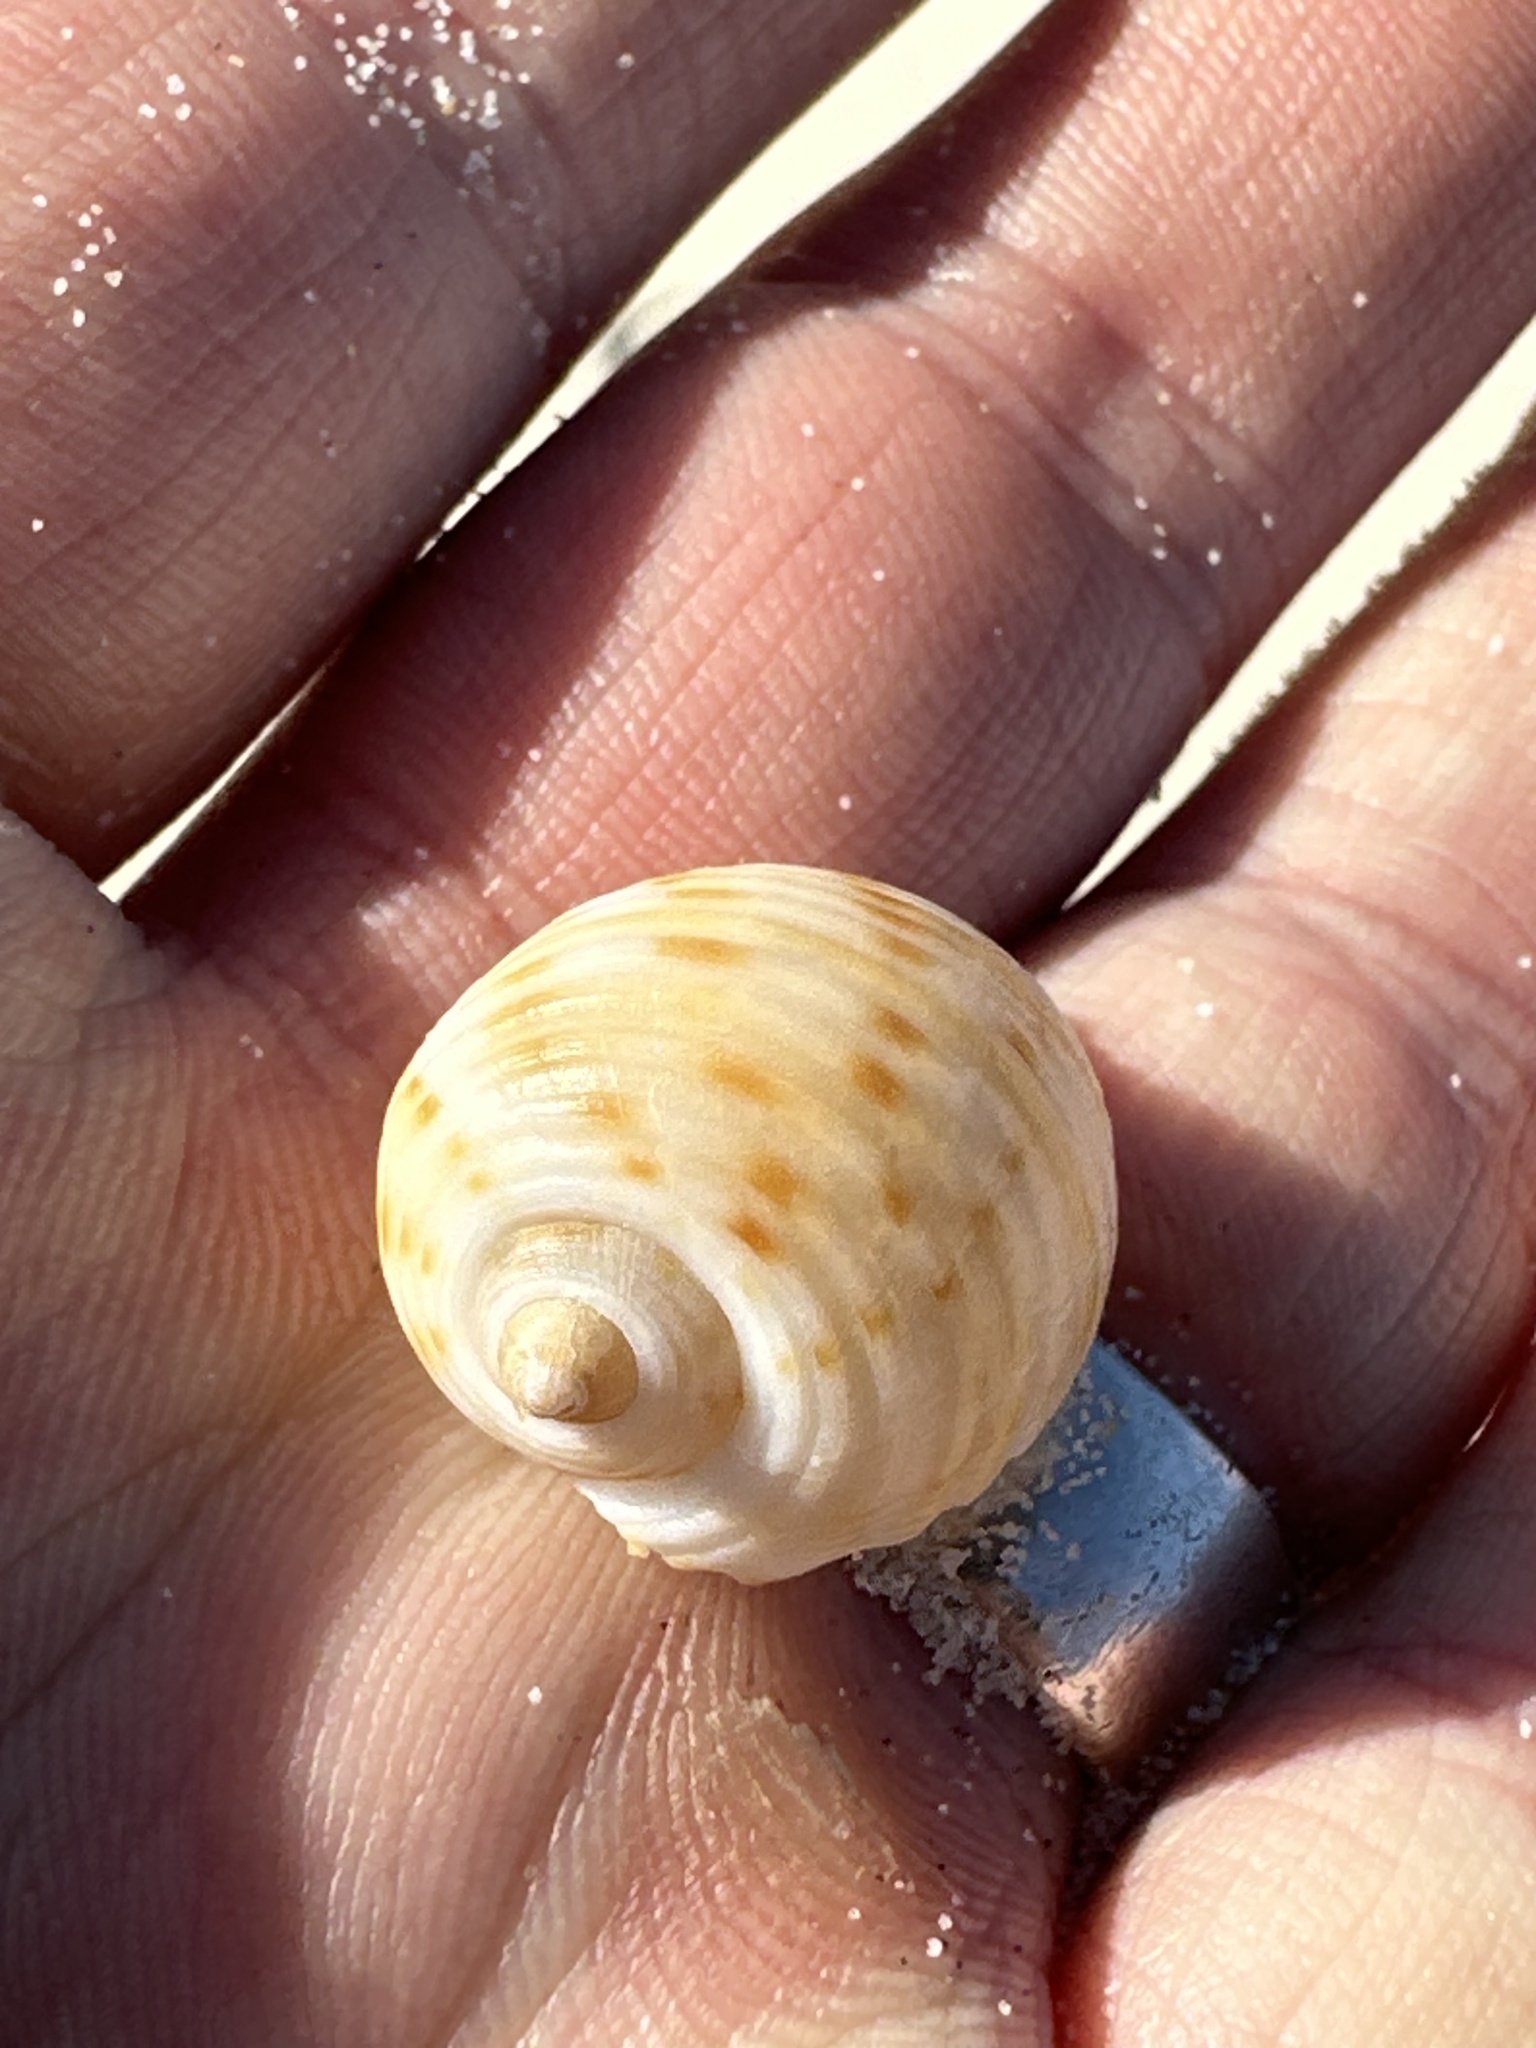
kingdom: Animalia
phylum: Mollusca
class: Gastropoda
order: Littorinimorpha
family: Tonnidae
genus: Tonna
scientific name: Tonna tankervillii
